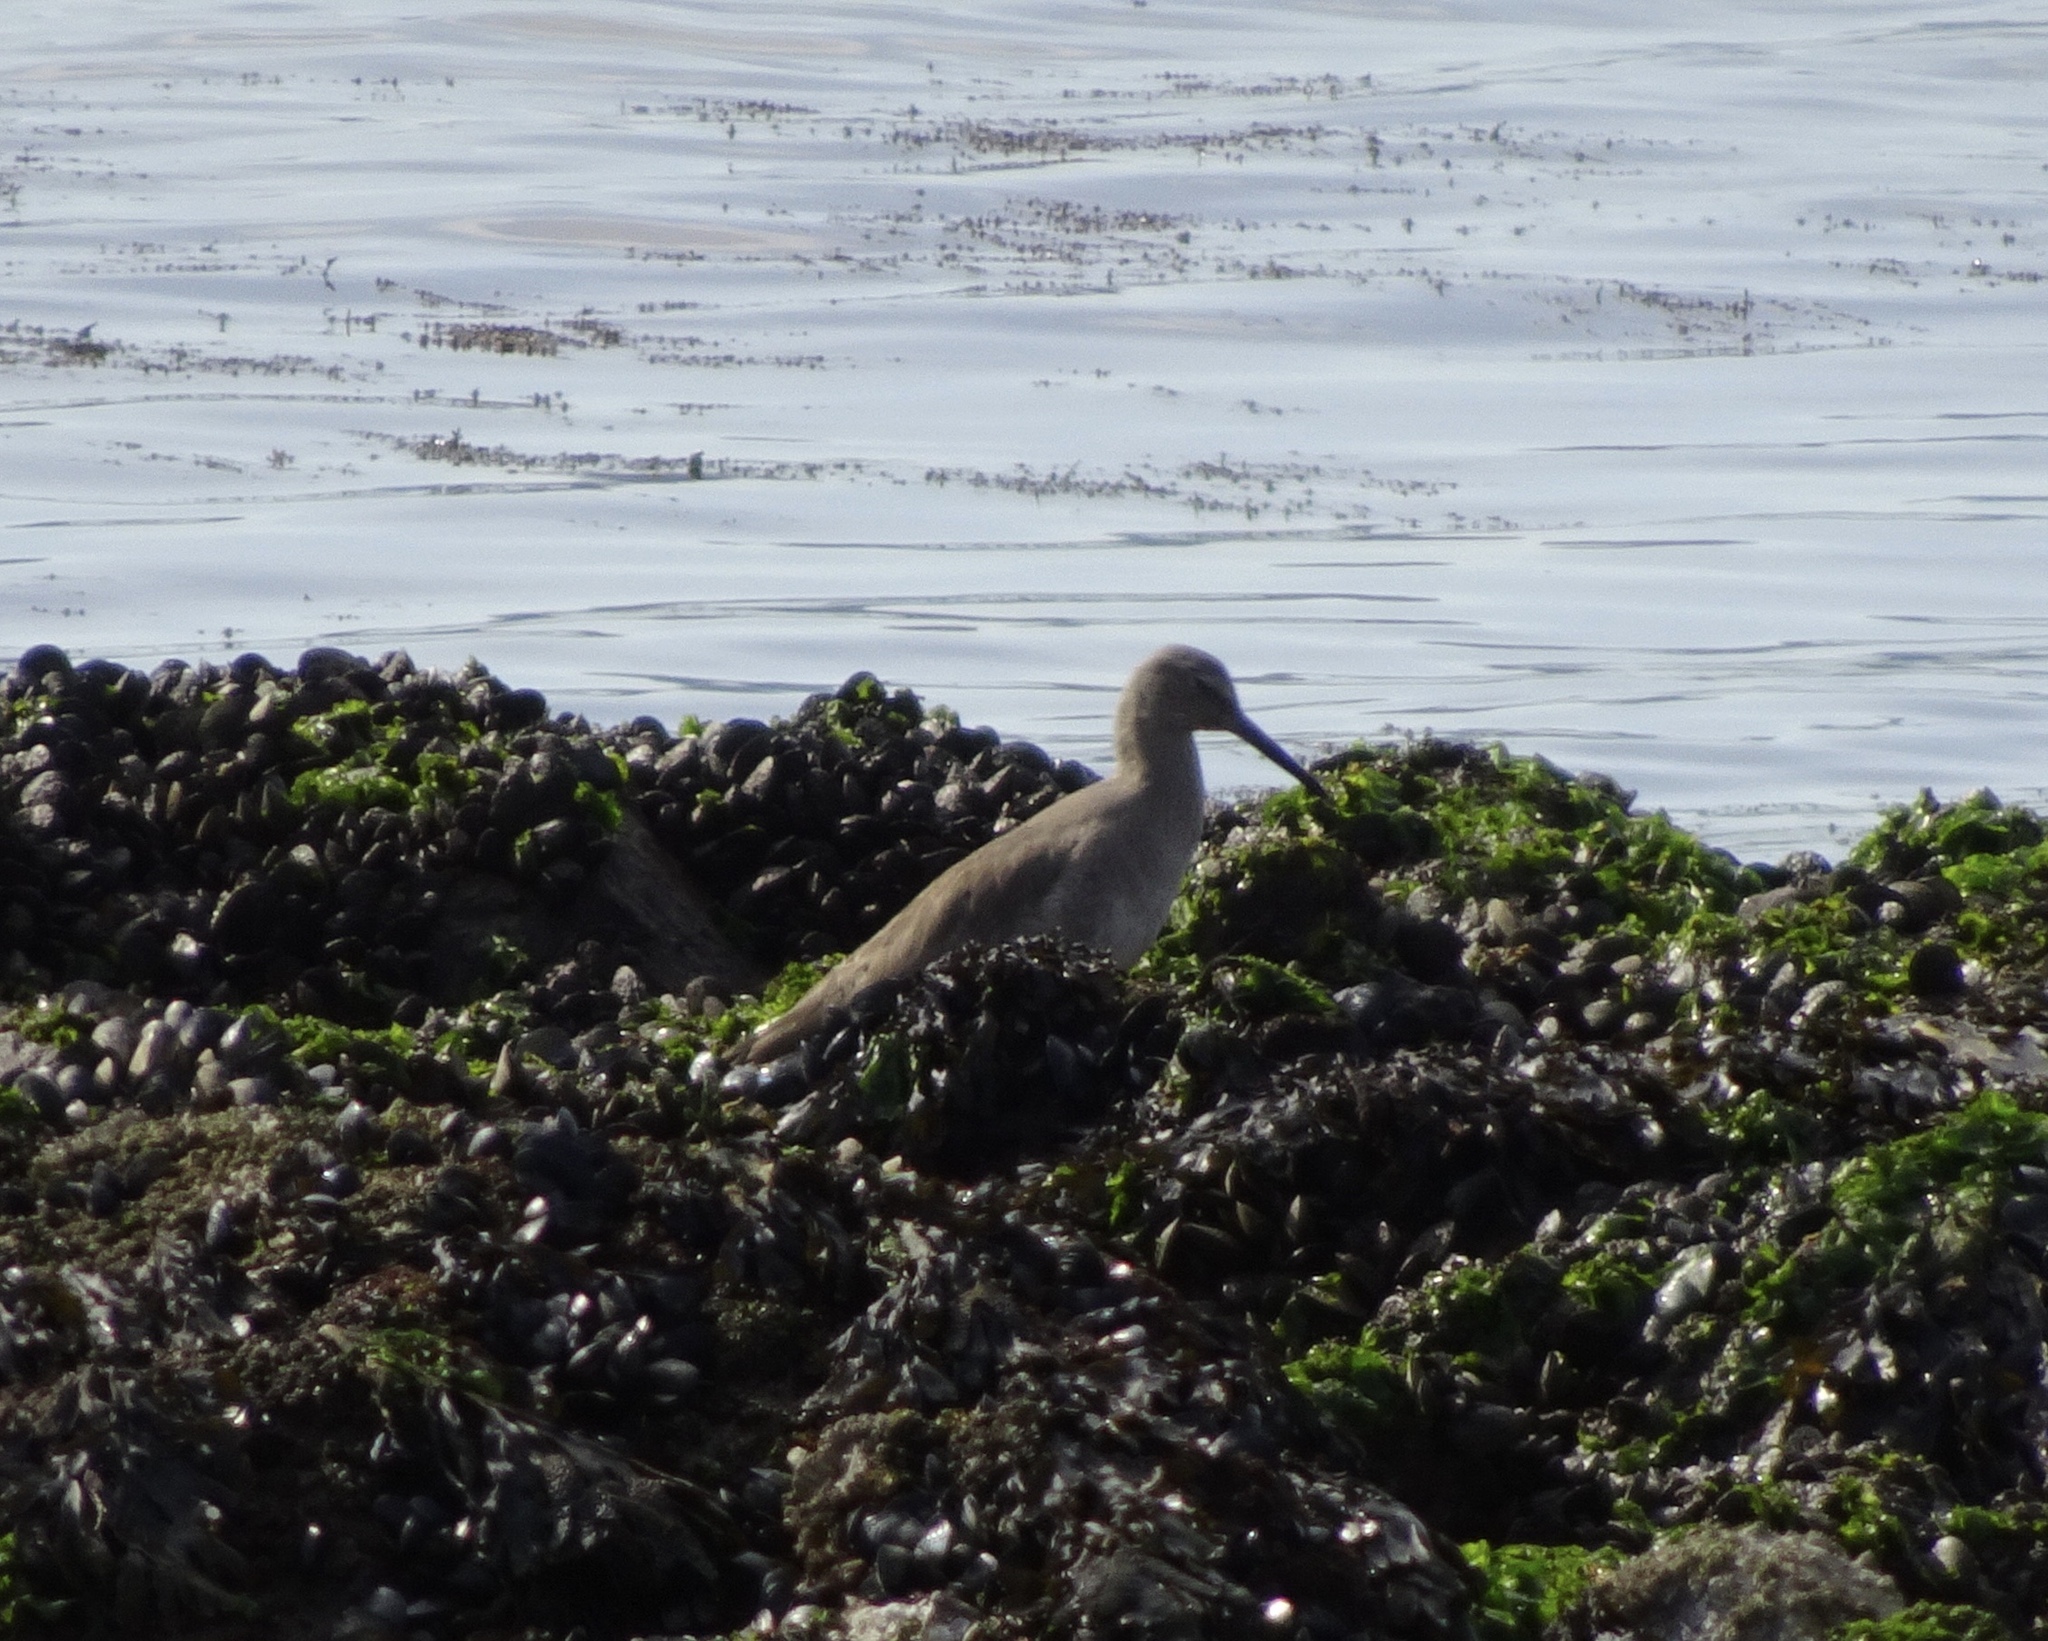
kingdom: Animalia
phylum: Chordata
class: Aves
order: Charadriiformes
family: Scolopacidae
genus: Tringa
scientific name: Tringa semipalmata
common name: Willet
